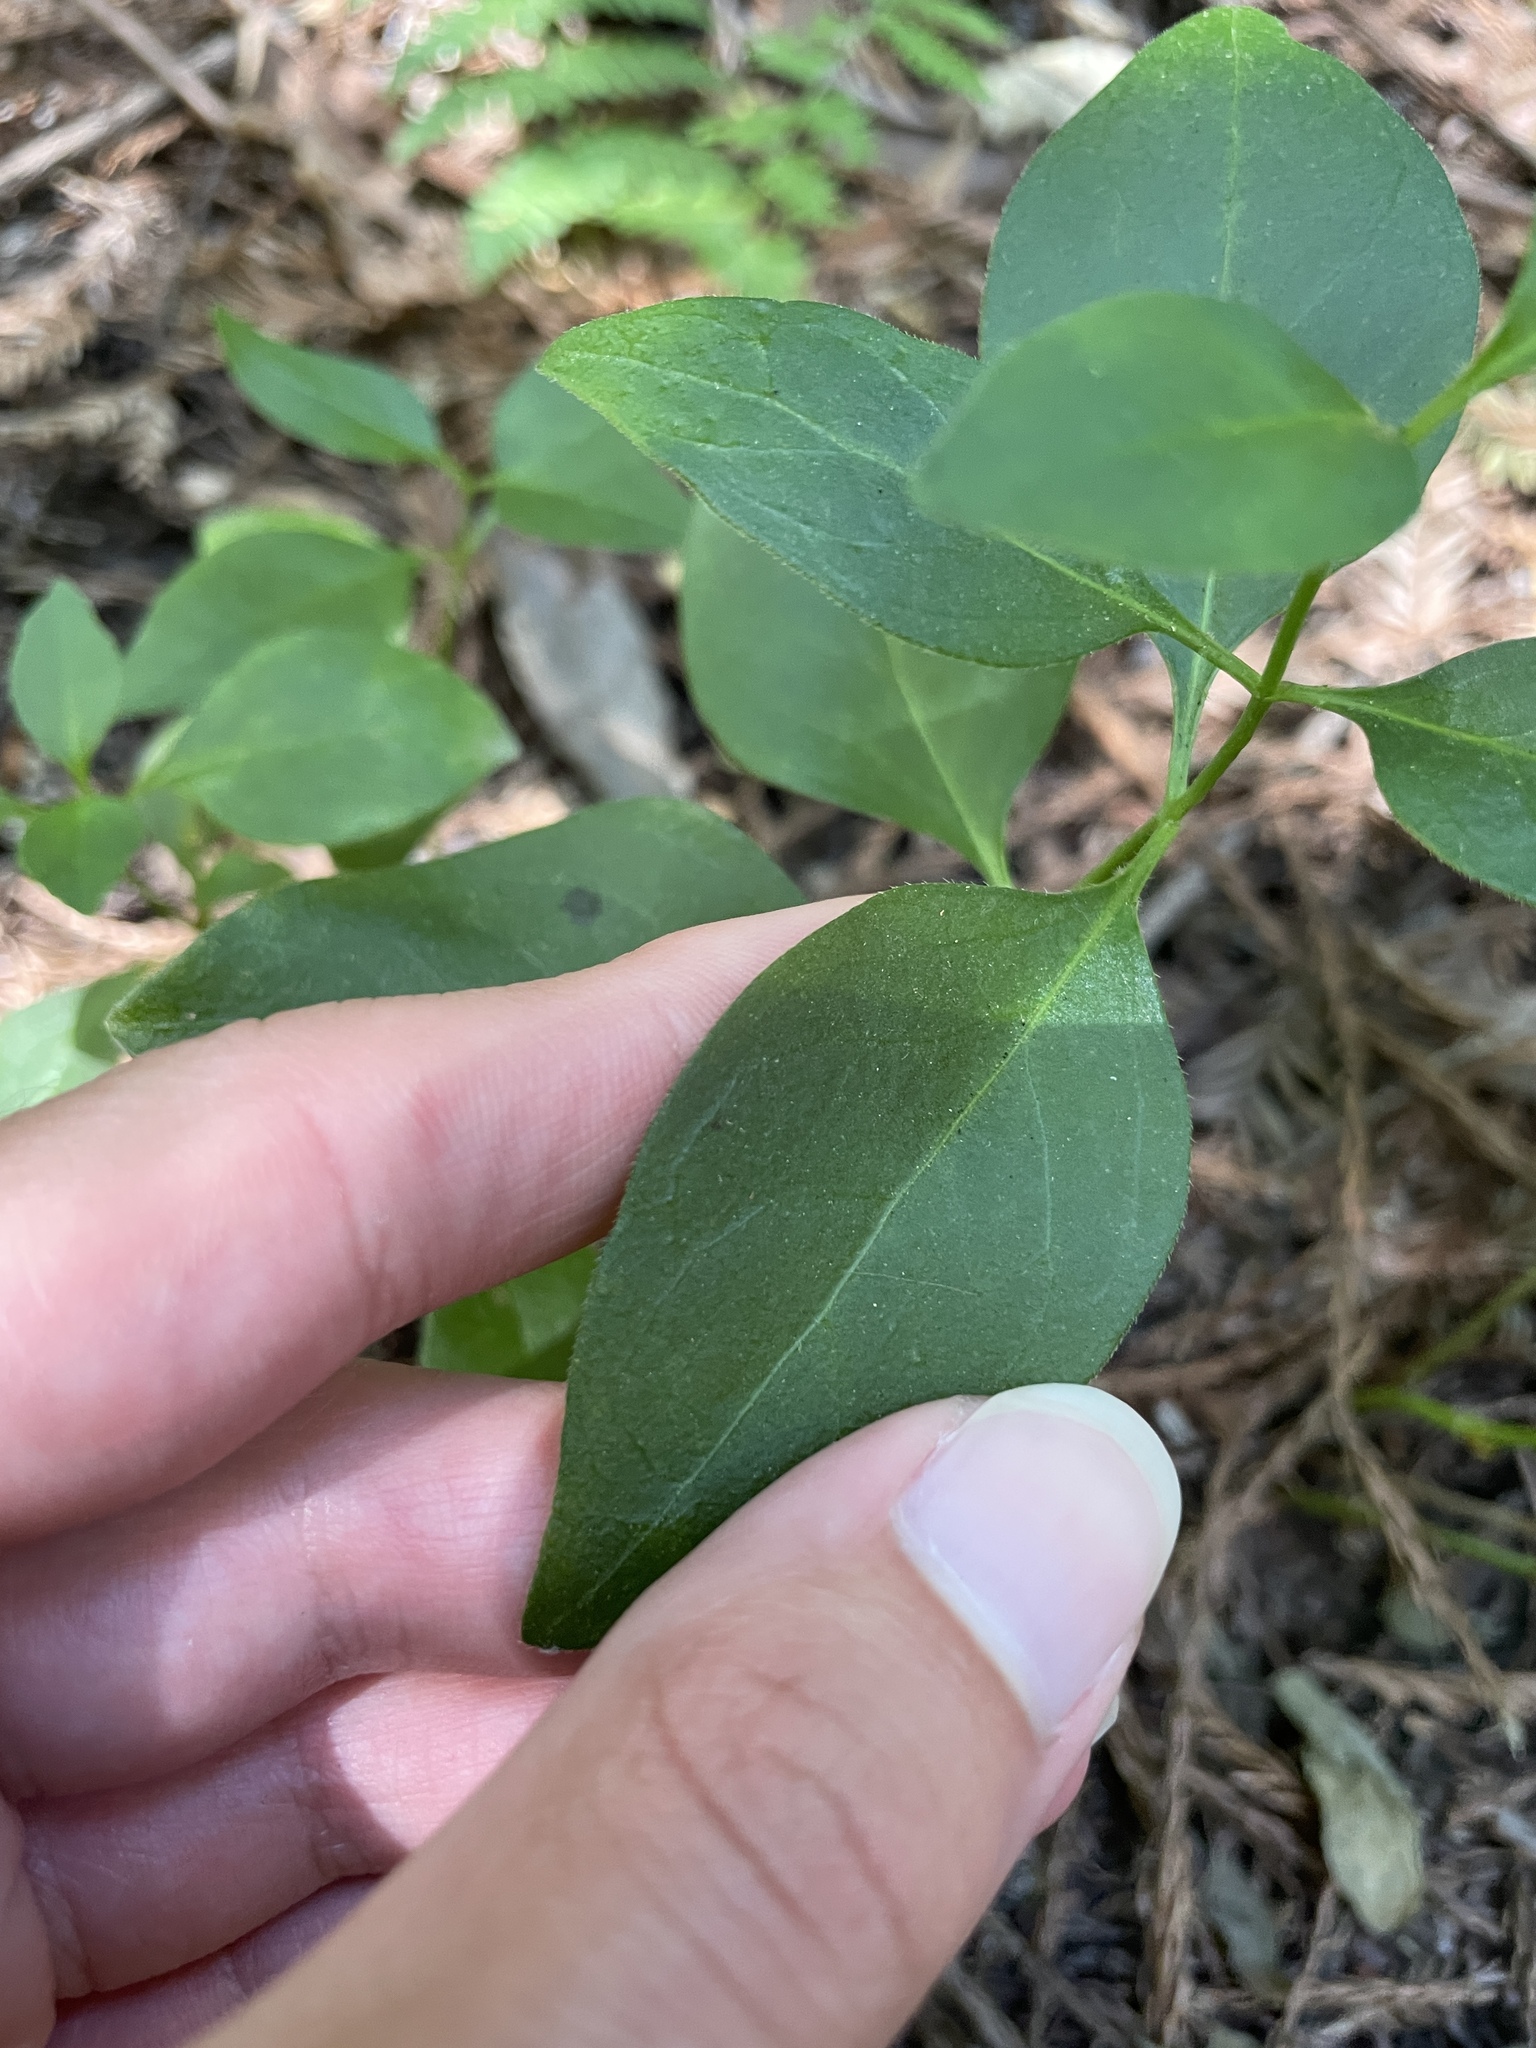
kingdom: Plantae
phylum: Tracheophyta
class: Magnoliopsida
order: Gentianales
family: Apocynaceae
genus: Vinca
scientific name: Vinca major
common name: Greater periwinkle
